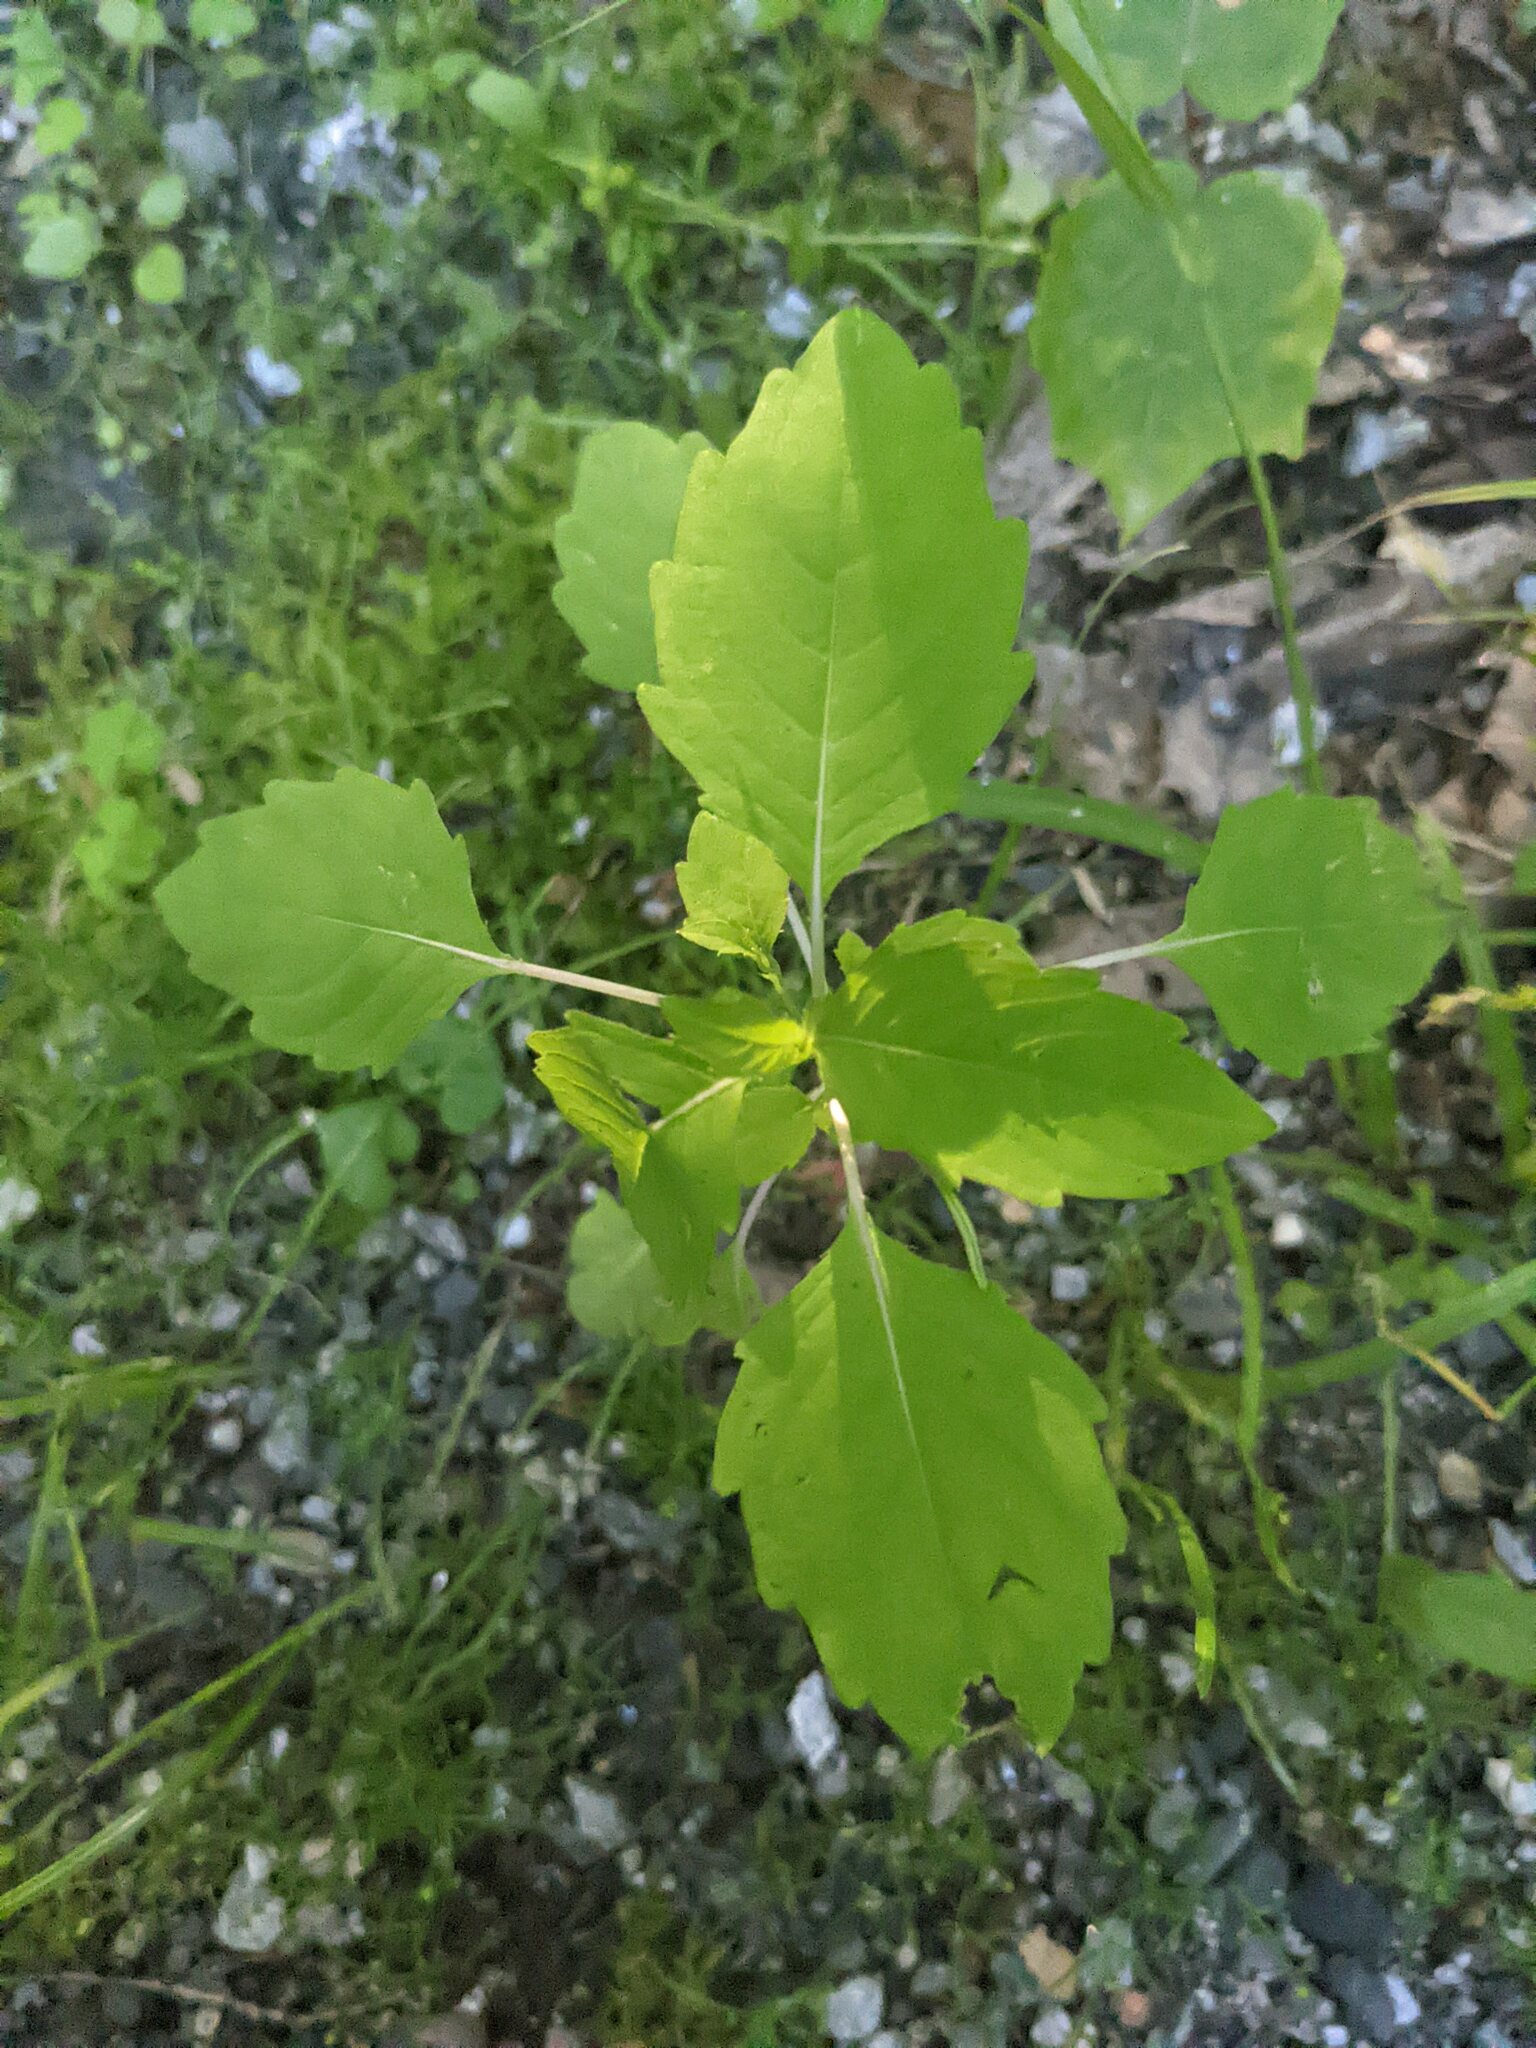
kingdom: Plantae
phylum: Tracheophyta
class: Magnoliopsida
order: Ericales
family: Balsaminaceae
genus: Impatiens
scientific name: Impatiens capensis
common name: Orange balsam
